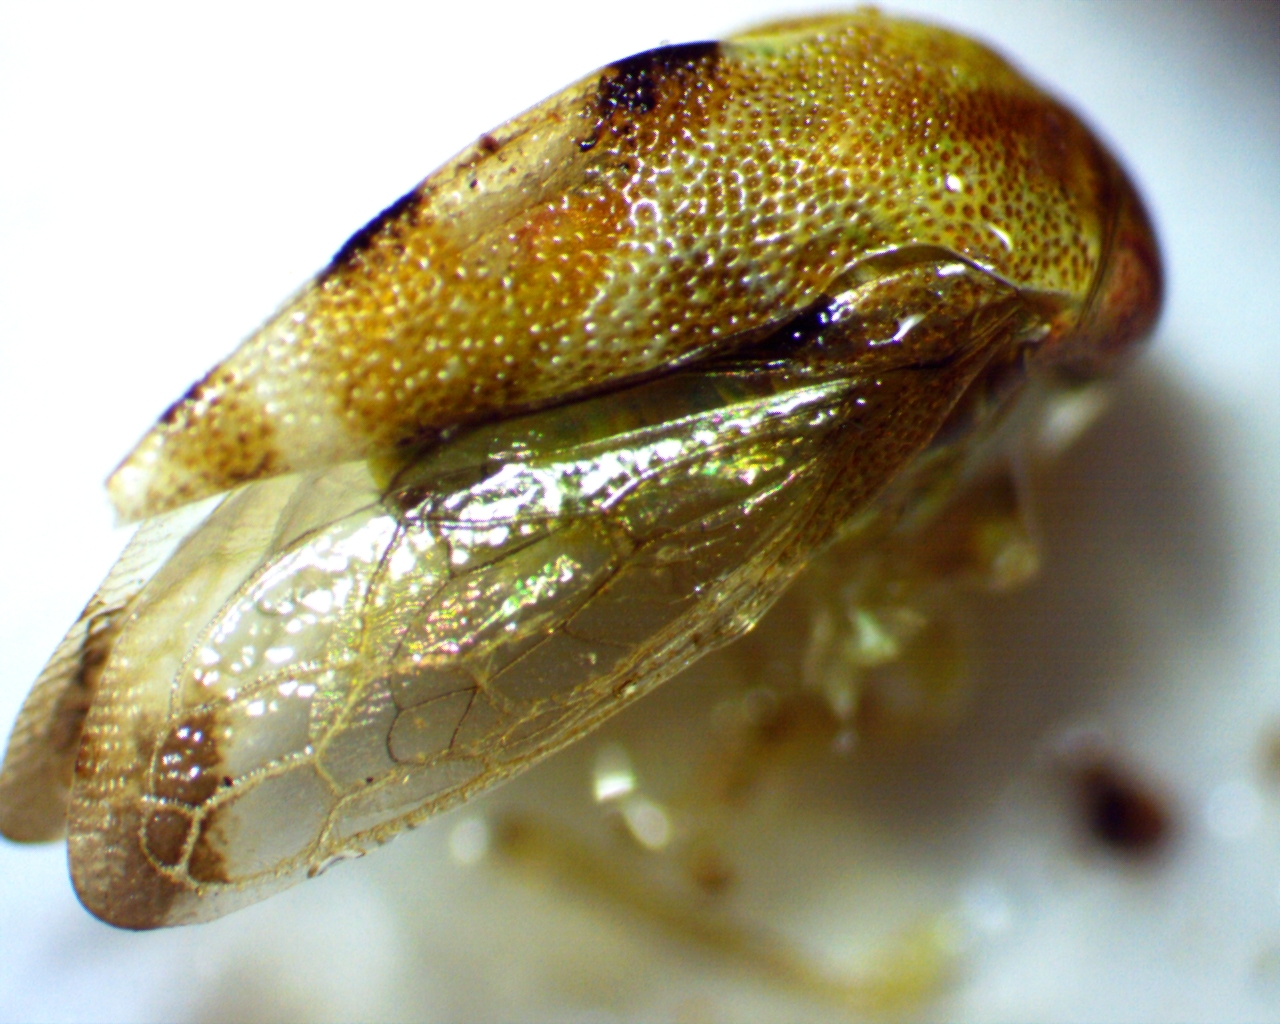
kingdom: Animalia
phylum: Arthropoda
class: Insecta
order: Hemiptera
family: Membracidae
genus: Cyrtolobus
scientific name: Cyrtolobus togatus
